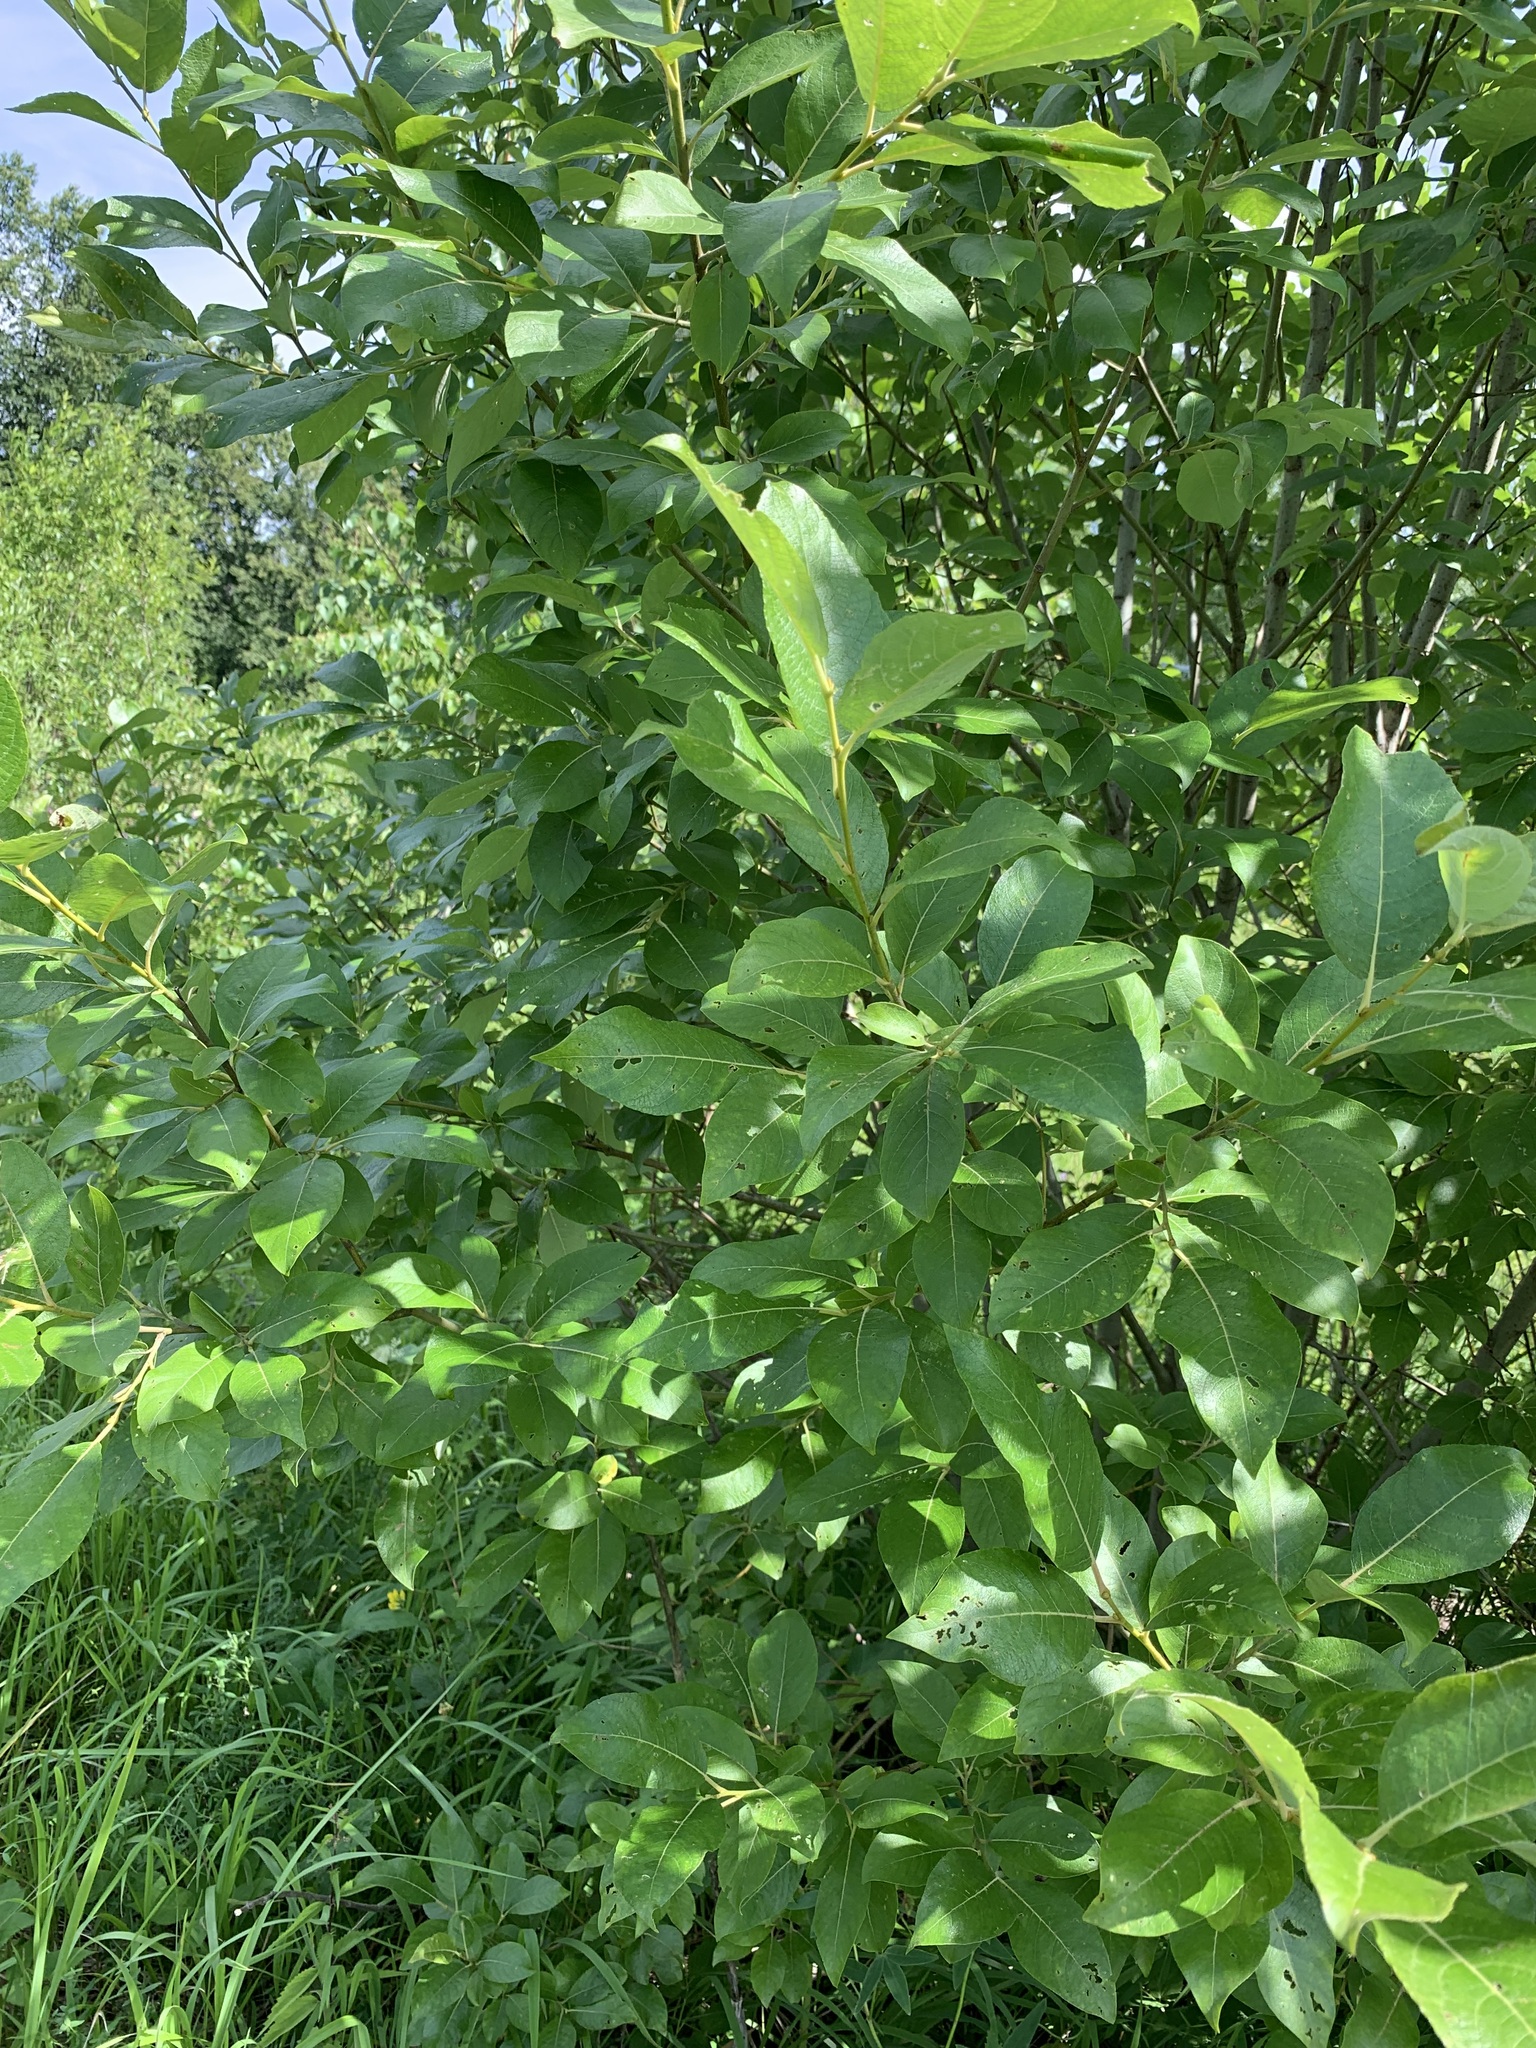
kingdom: Plantae
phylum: Tracheophyta
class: Magnoliopsida
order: Malpighiales
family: Salicaceae
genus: Salix
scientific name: Salix caprea
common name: Goat willow
